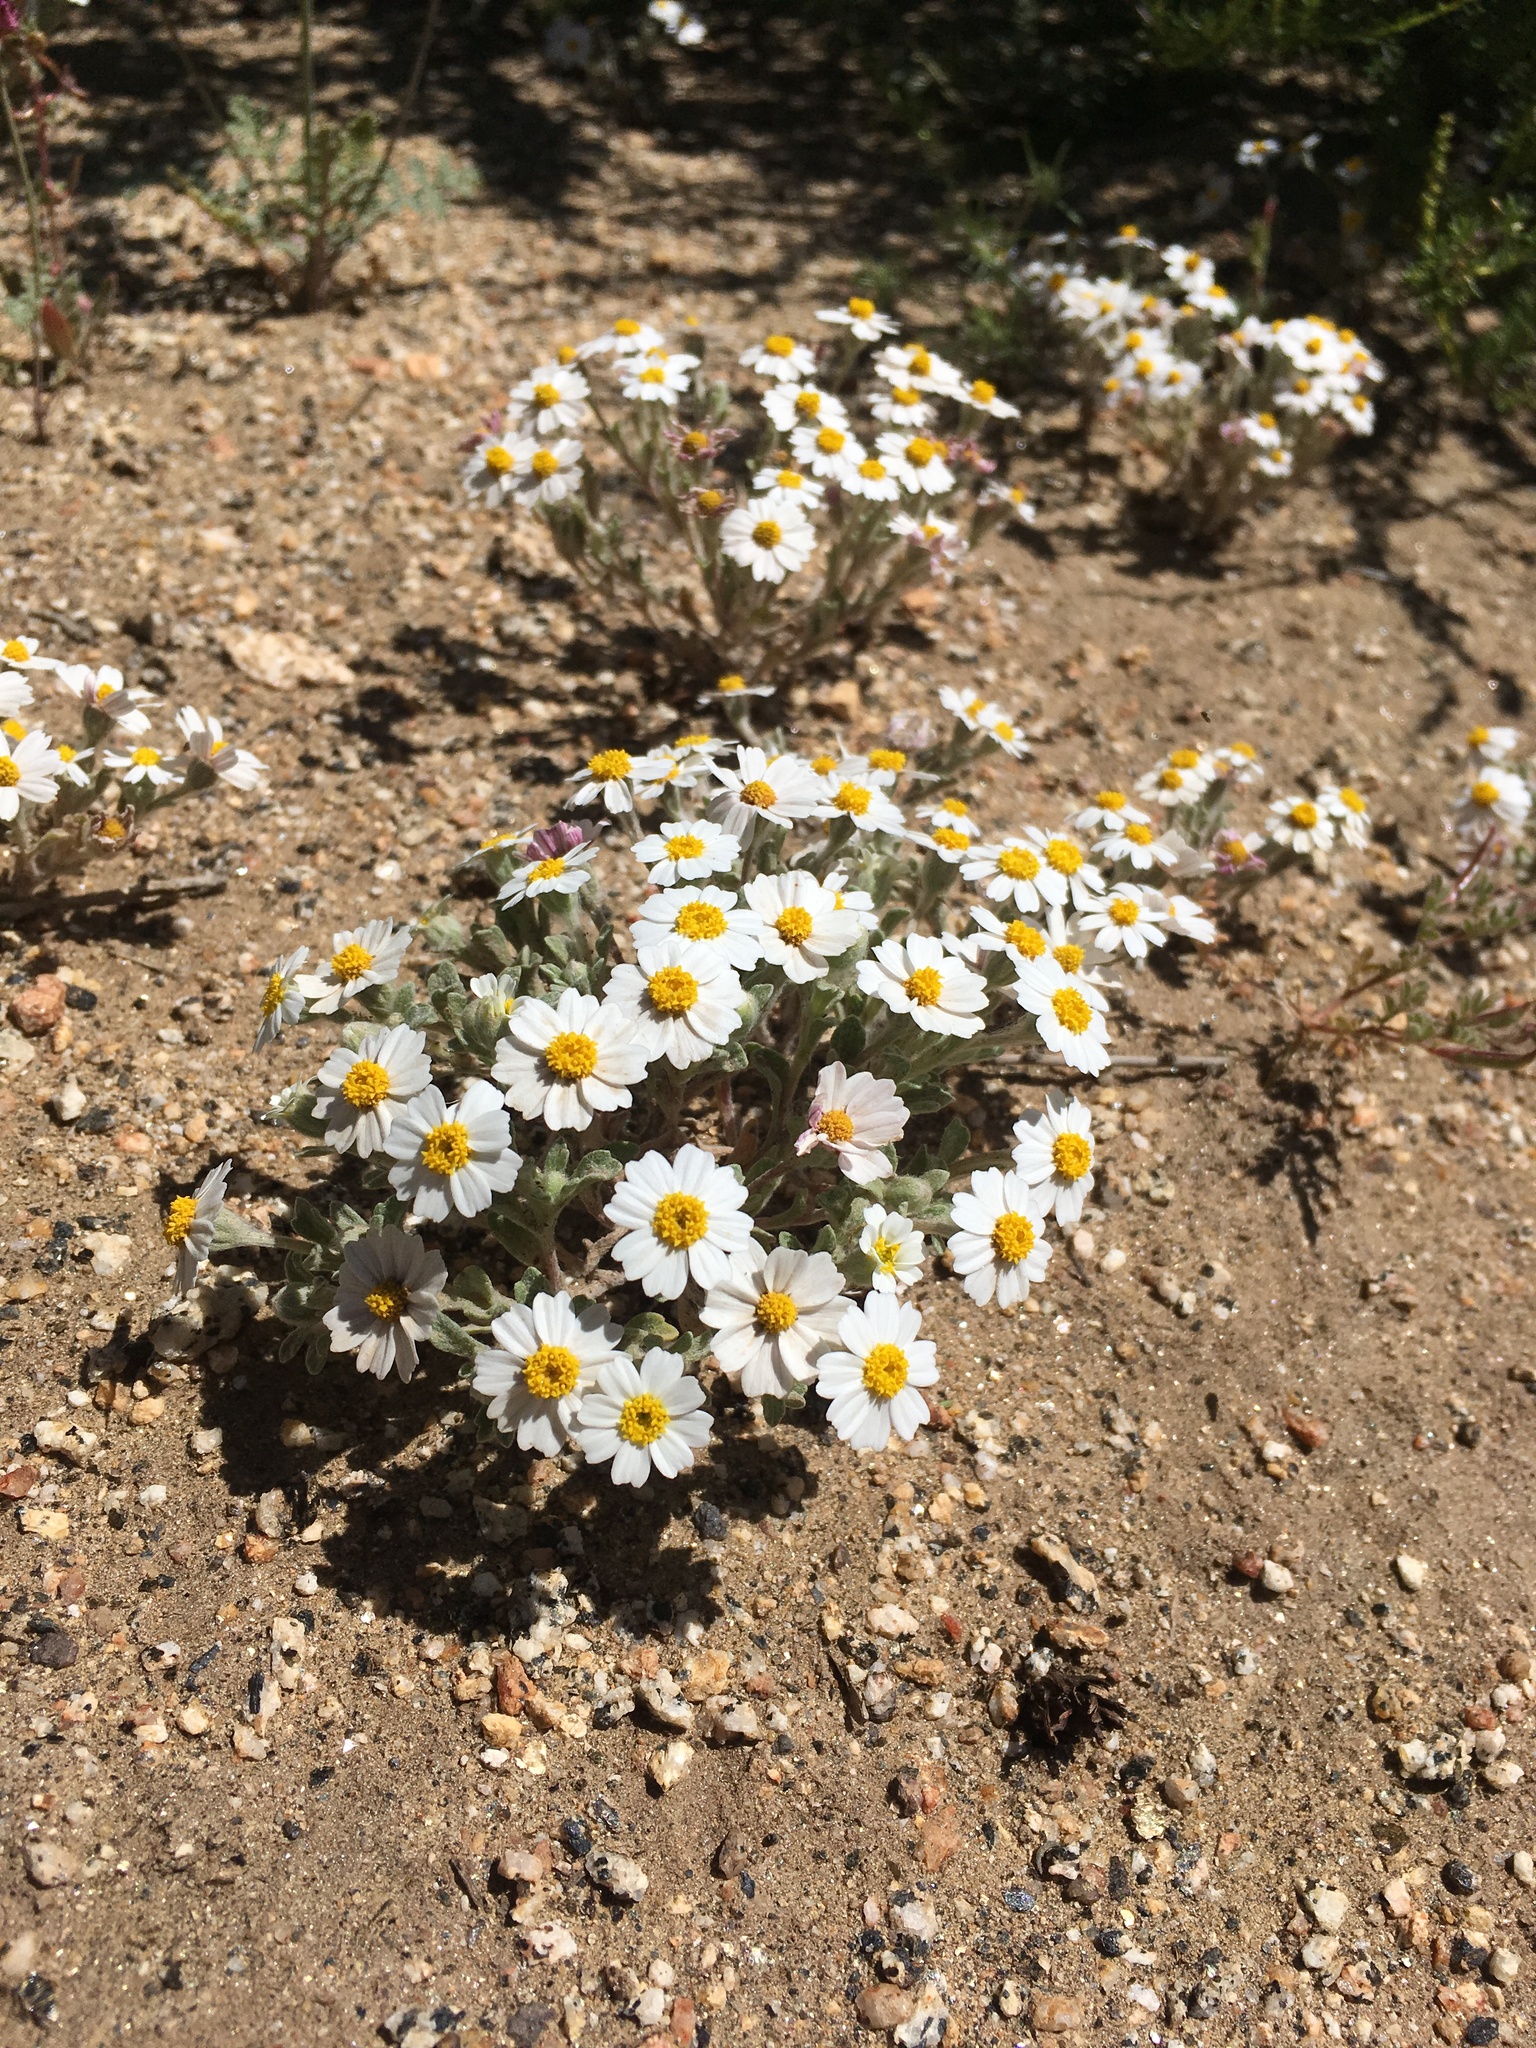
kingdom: Plantae
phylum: Tracheophyta
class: Magnoliopsida
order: Asterales
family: Asteraceae
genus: Eriophyllum
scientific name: Eriophyllum wallacei
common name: Wallace's woolly daisy
